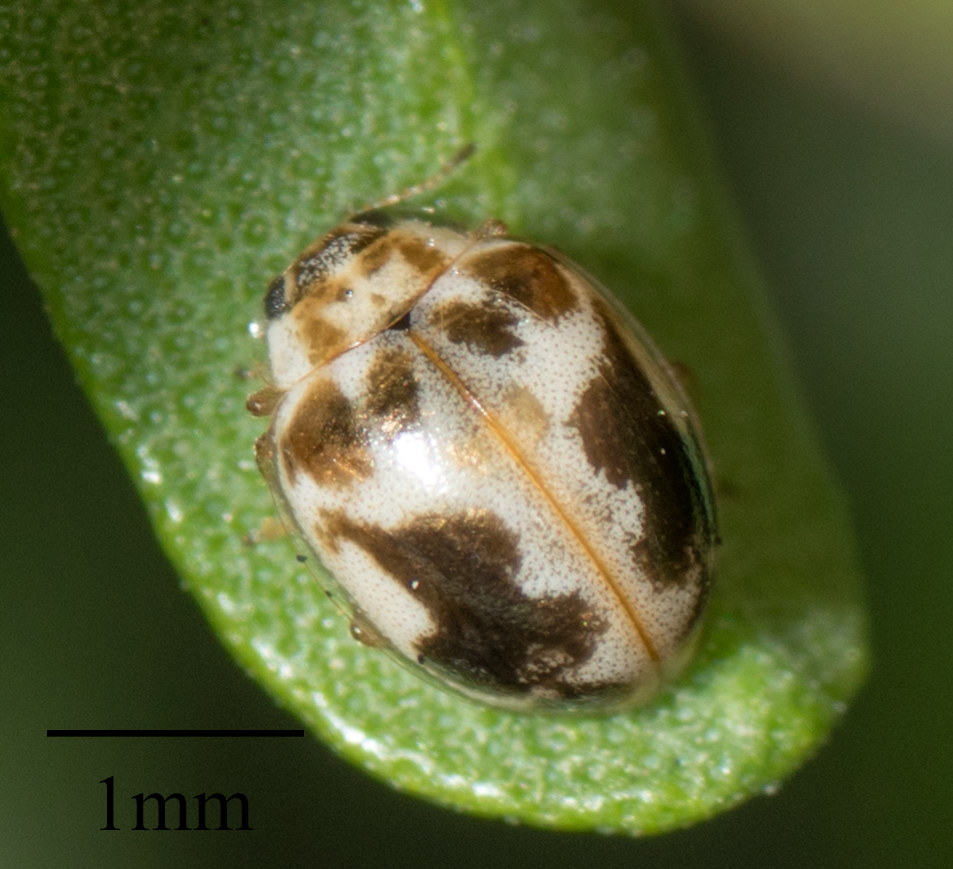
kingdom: Animalia
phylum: Arthropoda
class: Insecta
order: Coleoptera
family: Coccinellidae
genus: Psyllobora
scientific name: Psyllobora renifer
